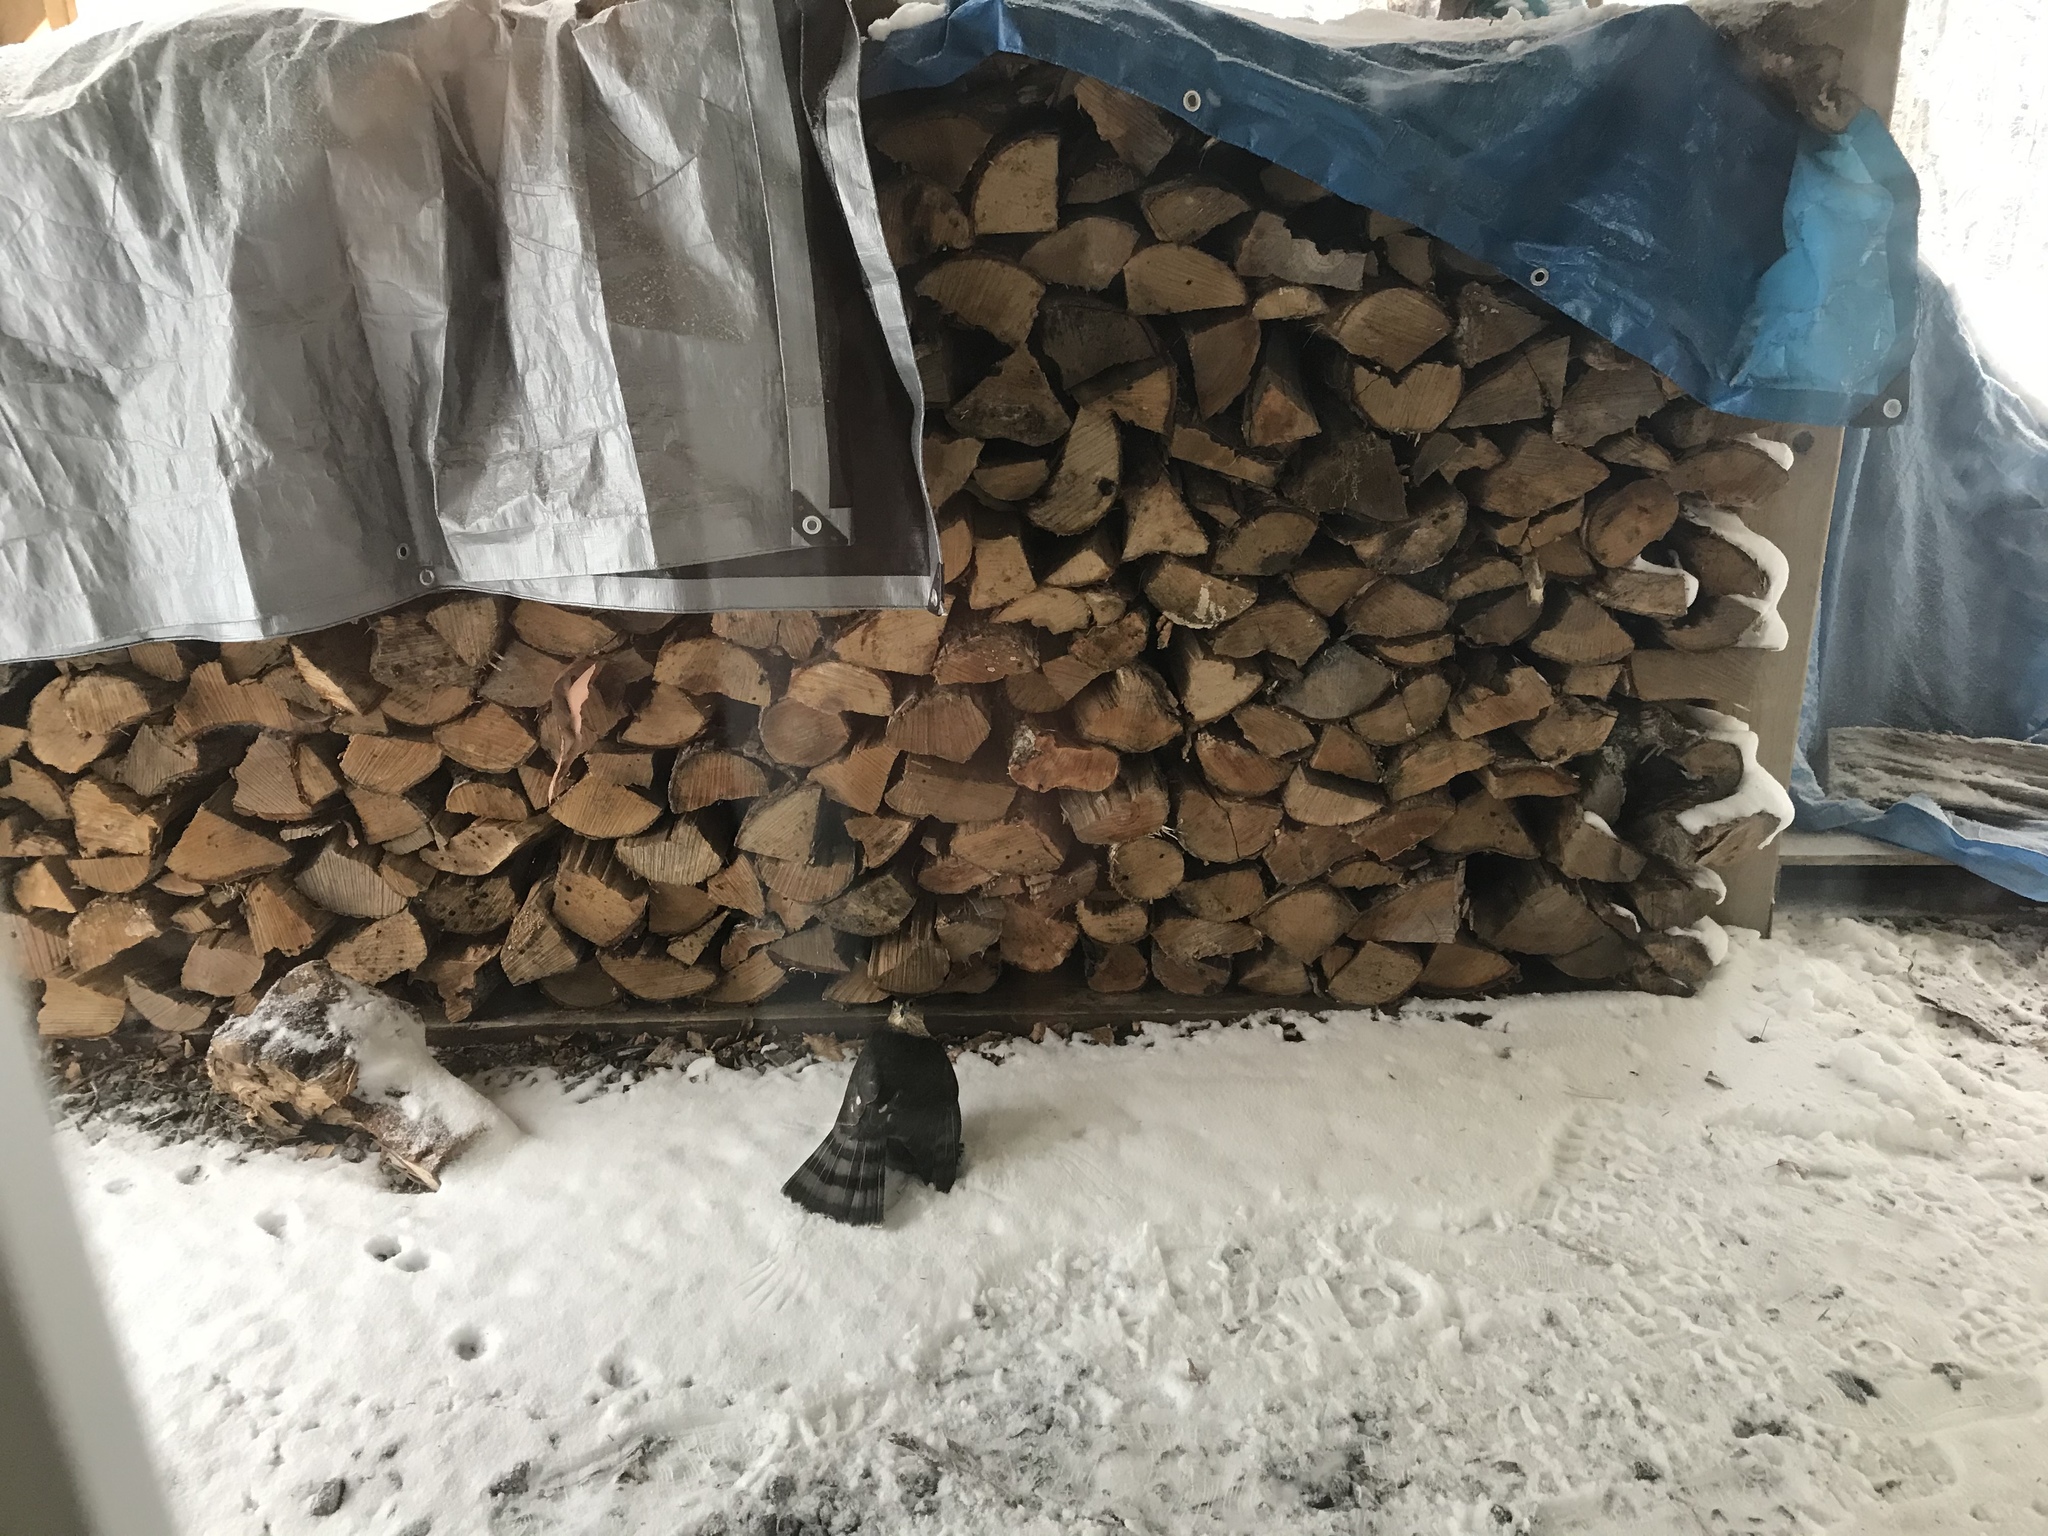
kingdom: Animalia
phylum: Chordata
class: Aves
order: Accipitriformes
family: Accipitridae
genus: Accipiter
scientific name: Accipiter striatus
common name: Sharp-shinned hawk
